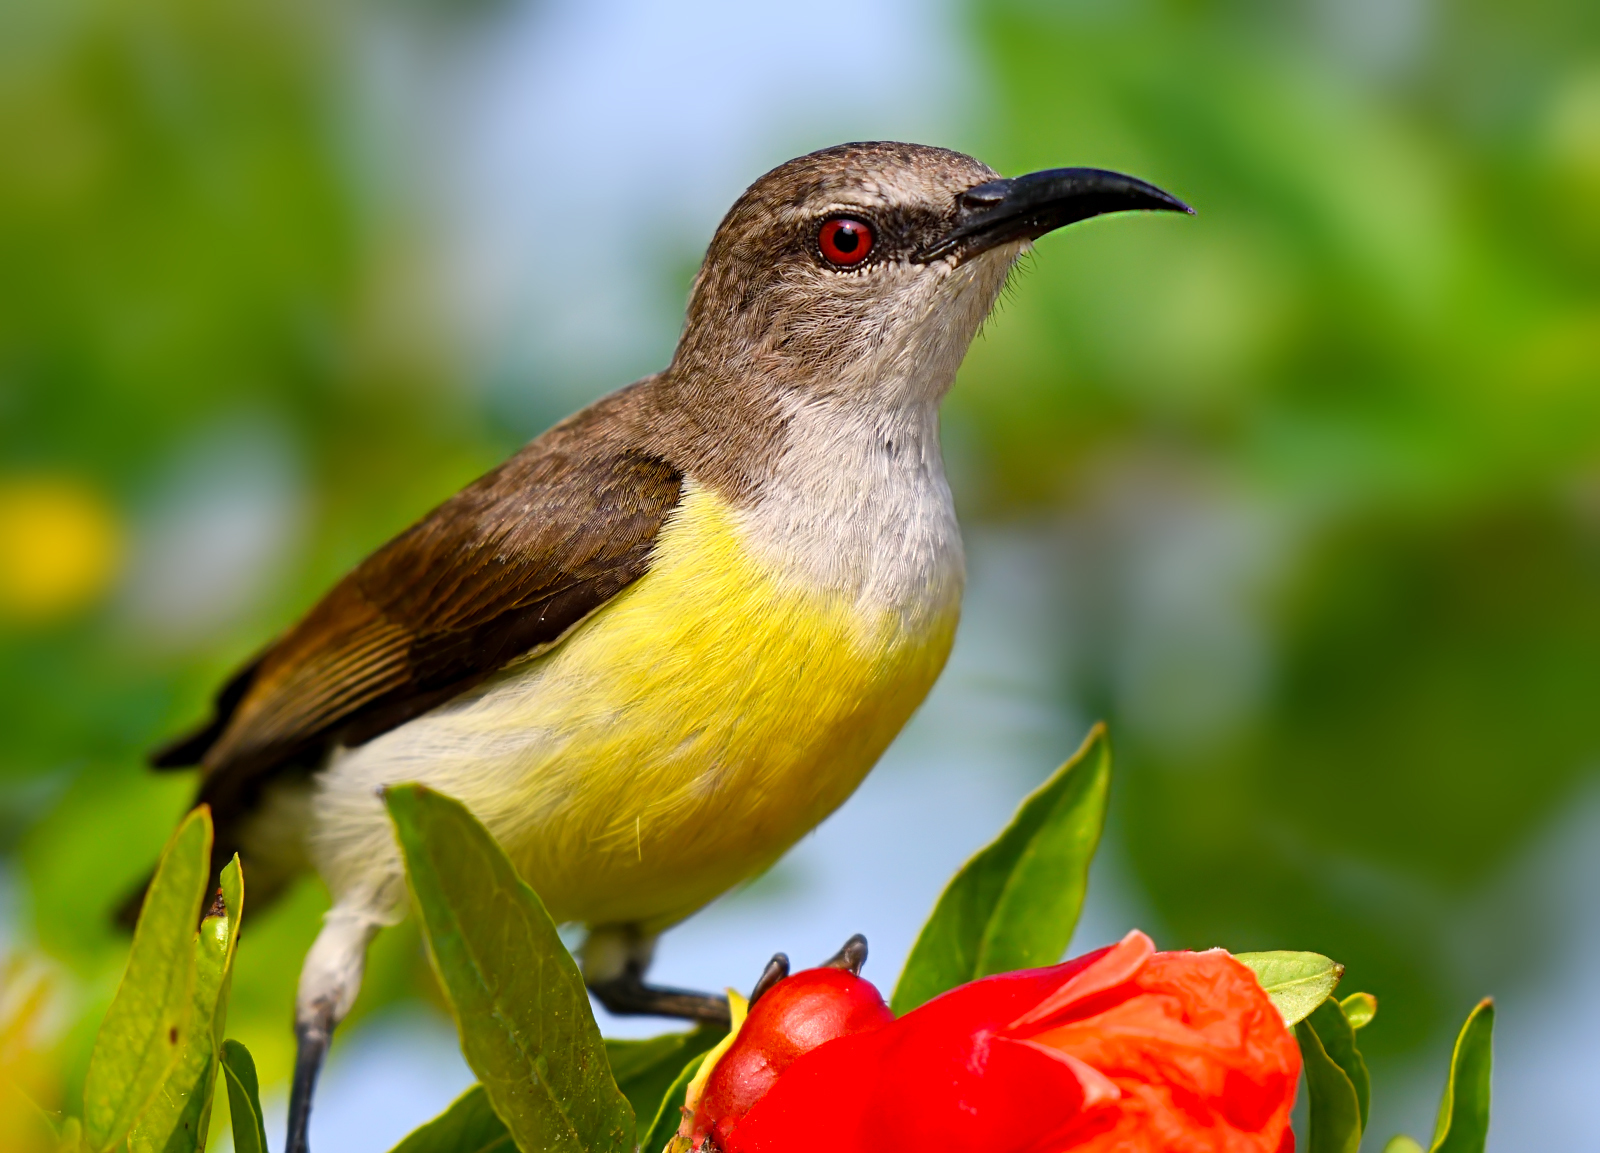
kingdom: Animalia
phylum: Chordata
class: Aves
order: Passeriformes
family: Nectariniidae
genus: Leptocoma
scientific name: Leptocoma zeylonica
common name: Purple-rumped sunbird
